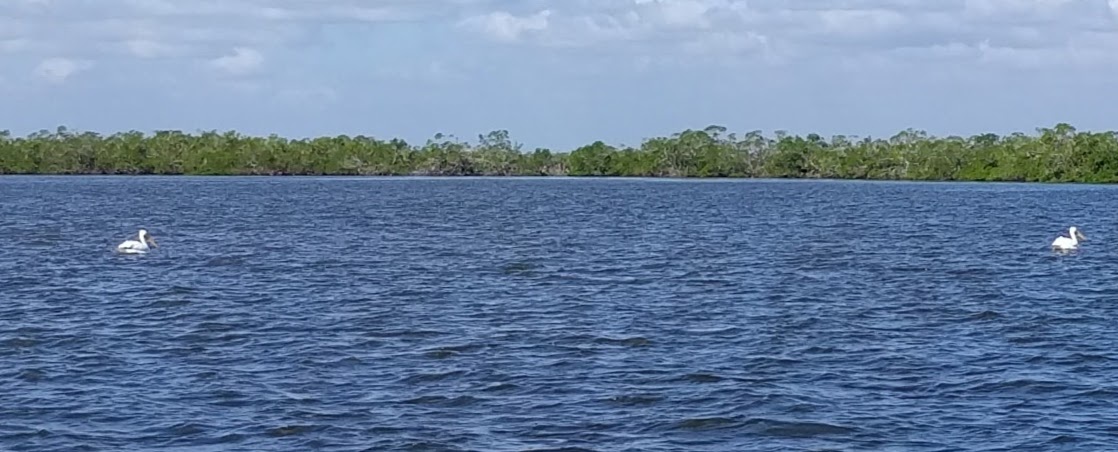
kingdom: Animalia
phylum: Chordata
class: Aves
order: Pelecaniformes
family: Pelecanidae
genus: Pelecanus
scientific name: Pelecanus erythrorhynchos
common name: American white pelican
